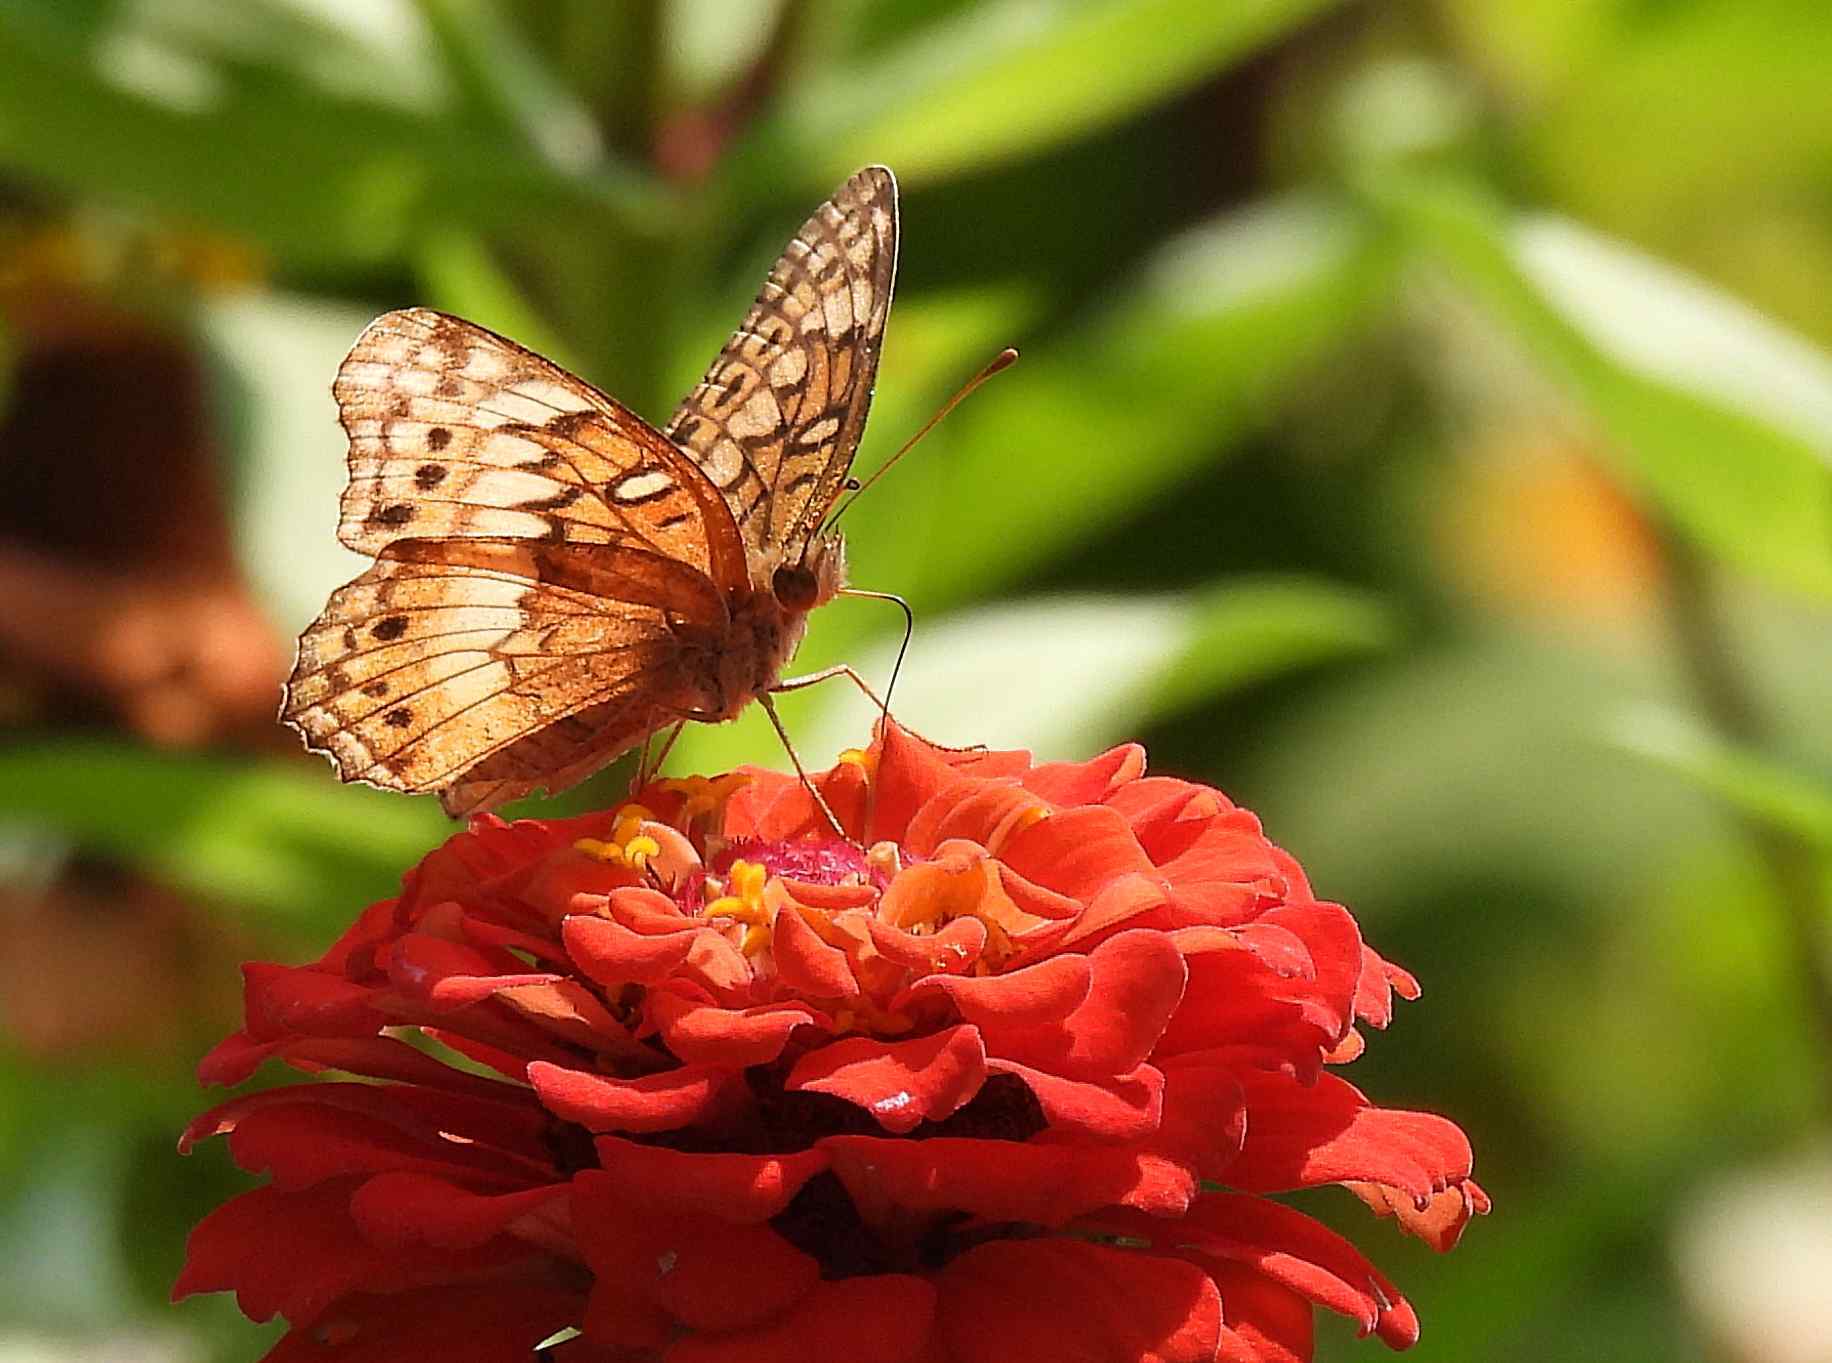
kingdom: Animalia
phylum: Arthropoda
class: Insecta
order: Lepidoptera
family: Nymphalidae
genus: Euptoieta
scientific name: Euptoieta claudia
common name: Variegated fritillary
